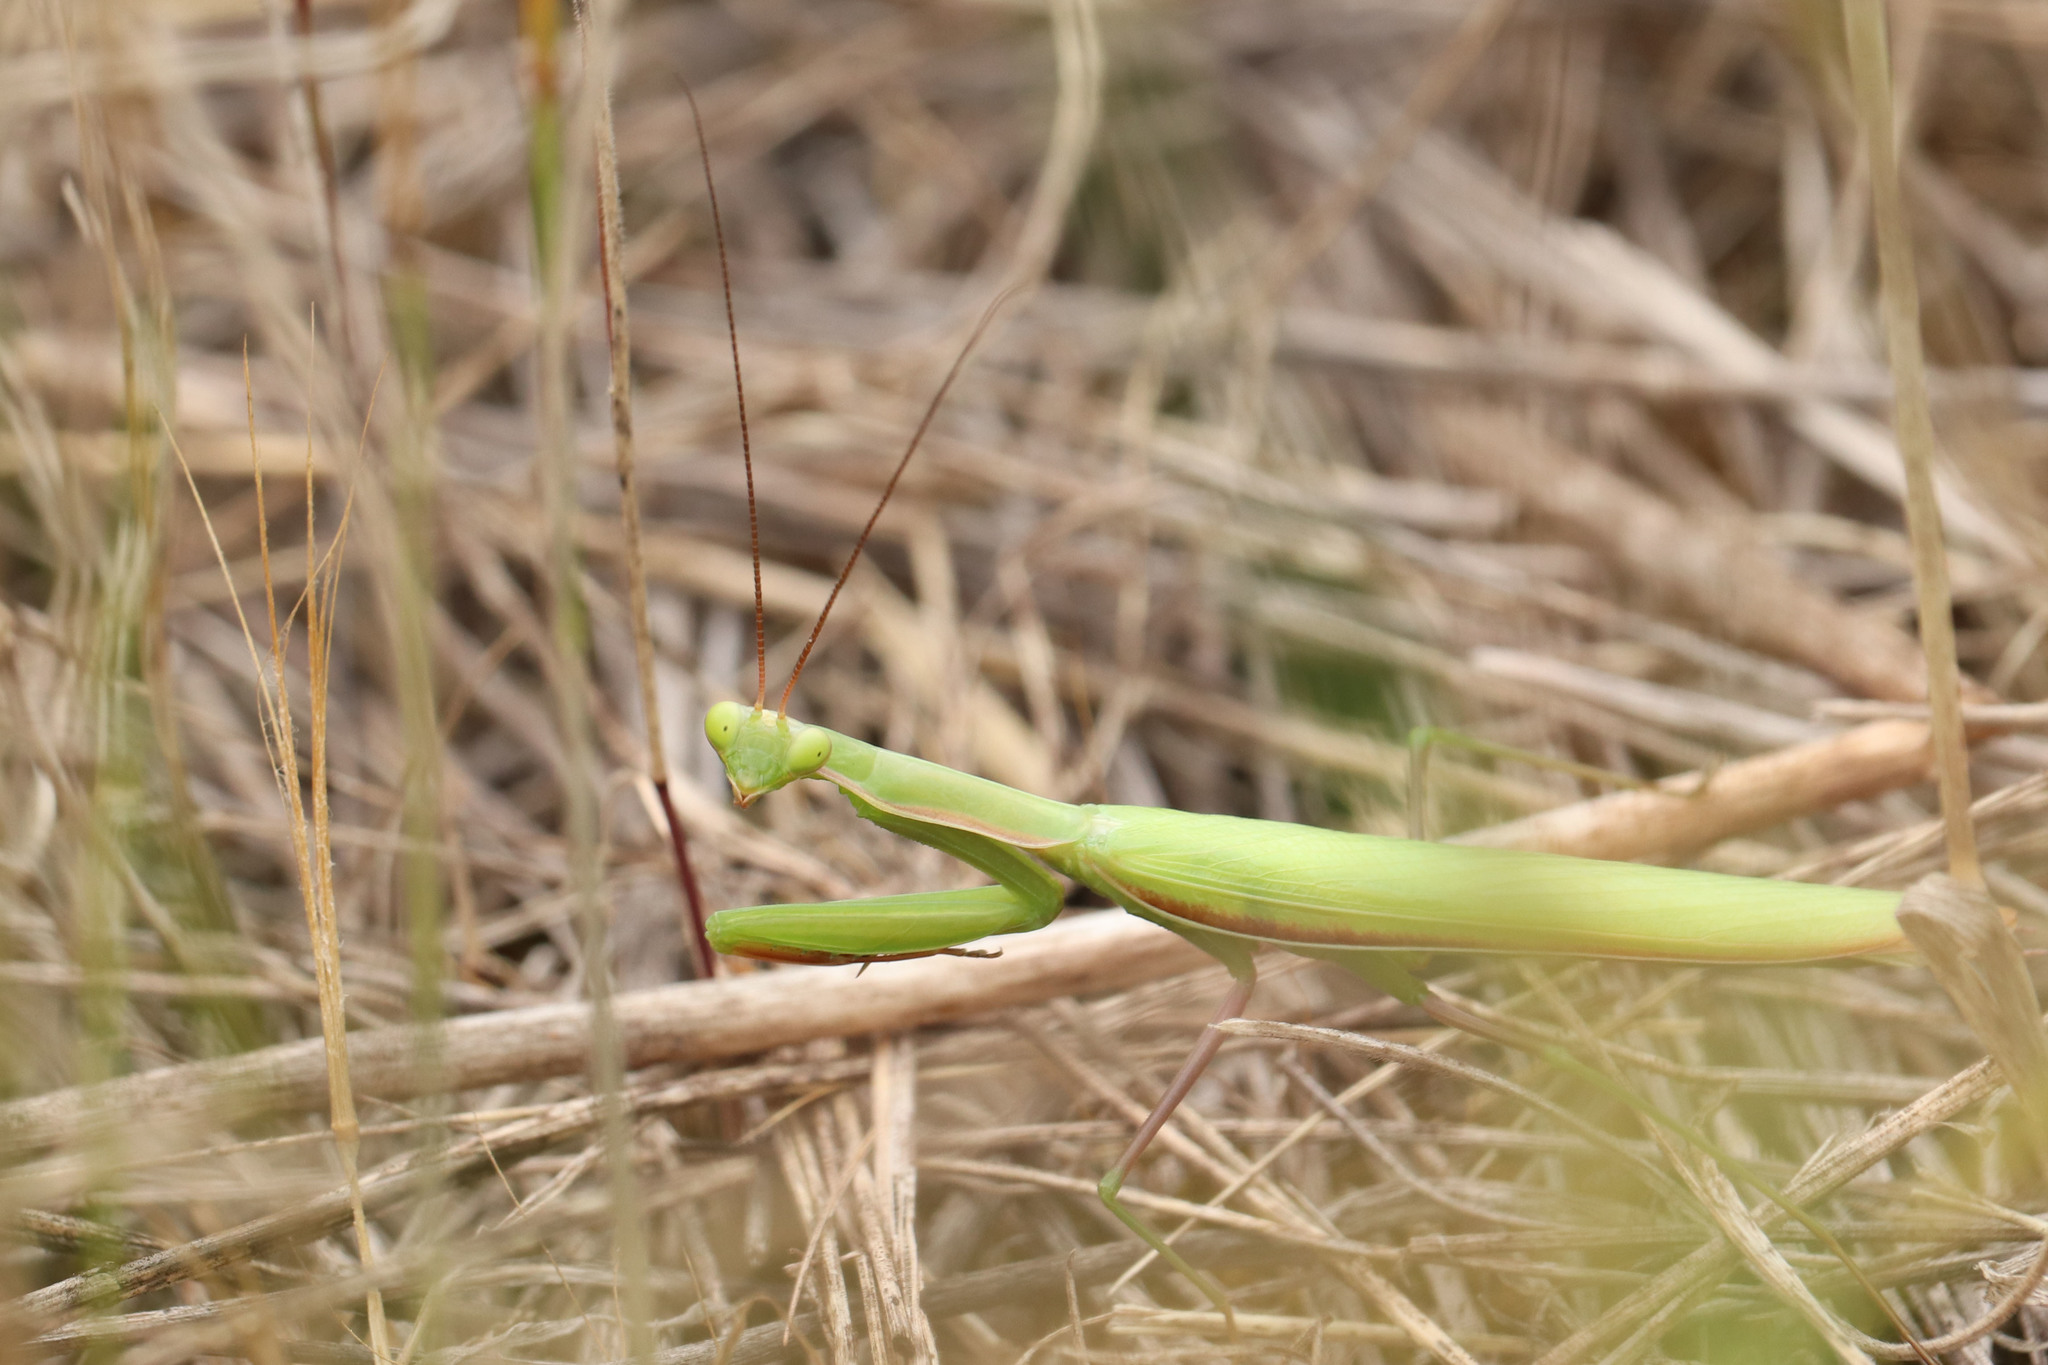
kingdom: Animalia
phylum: Arthropoda
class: Insecta
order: Mantodea
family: Mantidae
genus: Mantis
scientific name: Mantis religiosa
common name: Praying mantis
